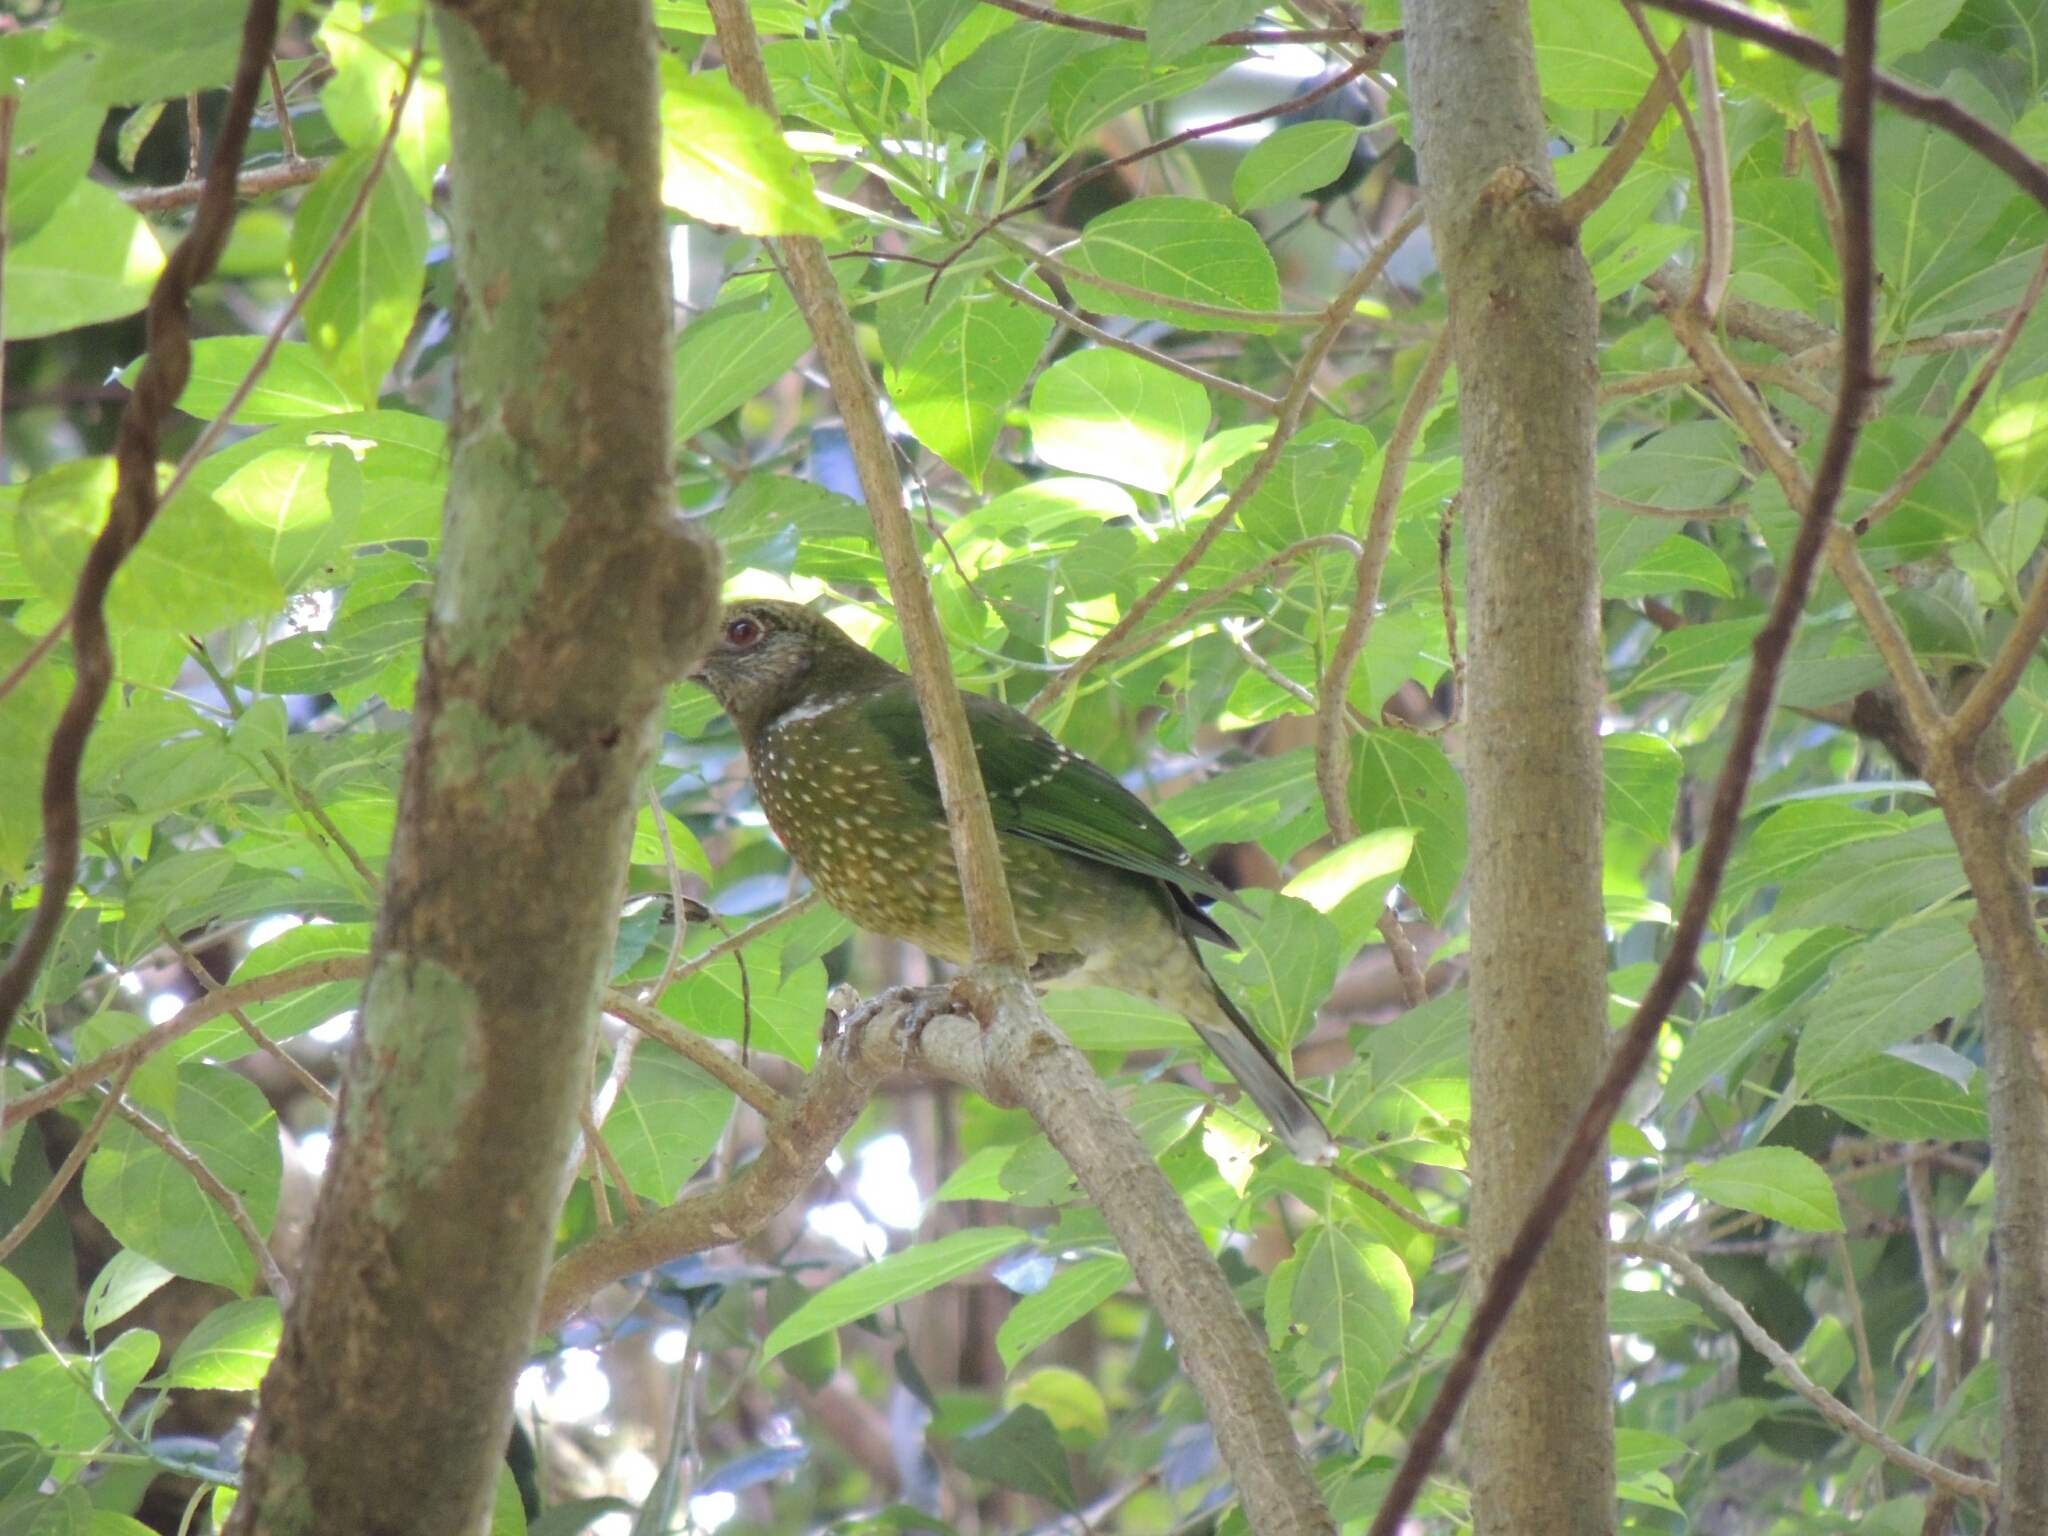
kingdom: Animalia
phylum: Chordata
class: Aves
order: Passeriformes
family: Ptilonorhynchidae
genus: Ailuroedus
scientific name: Ailuroedus crassirostris
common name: Green catbird
